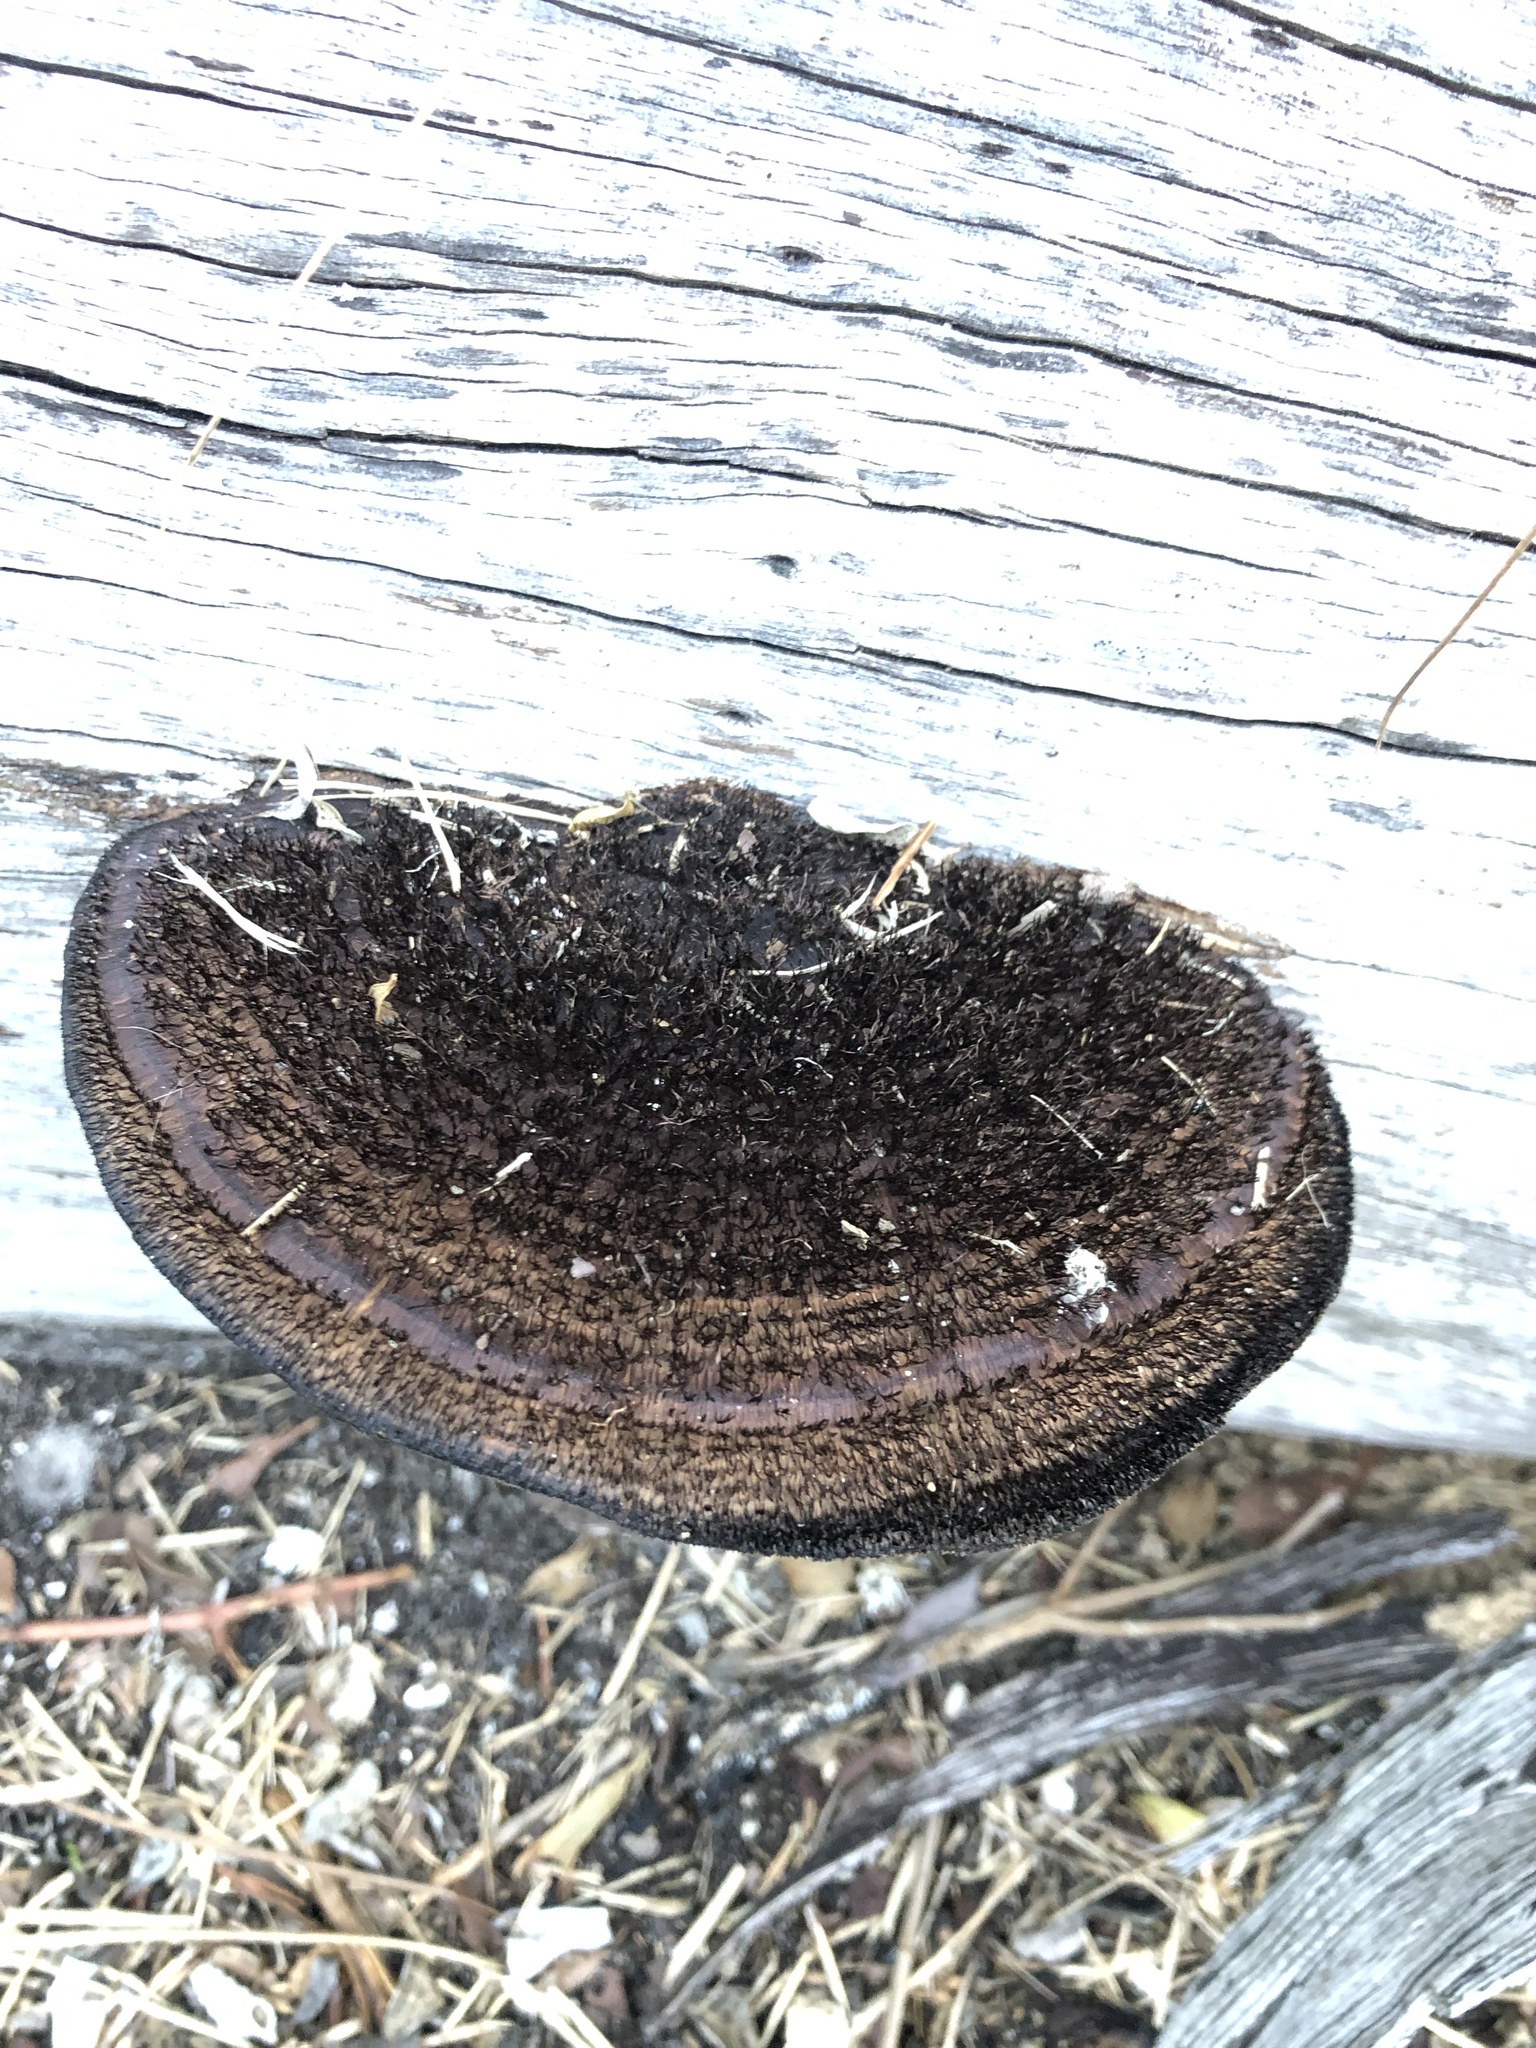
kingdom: Fungi
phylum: Basidiomycota
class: Agaricomycetes
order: Polyporales
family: Cerrenaceae
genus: Cerrena
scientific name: Cerrena hydnoides
